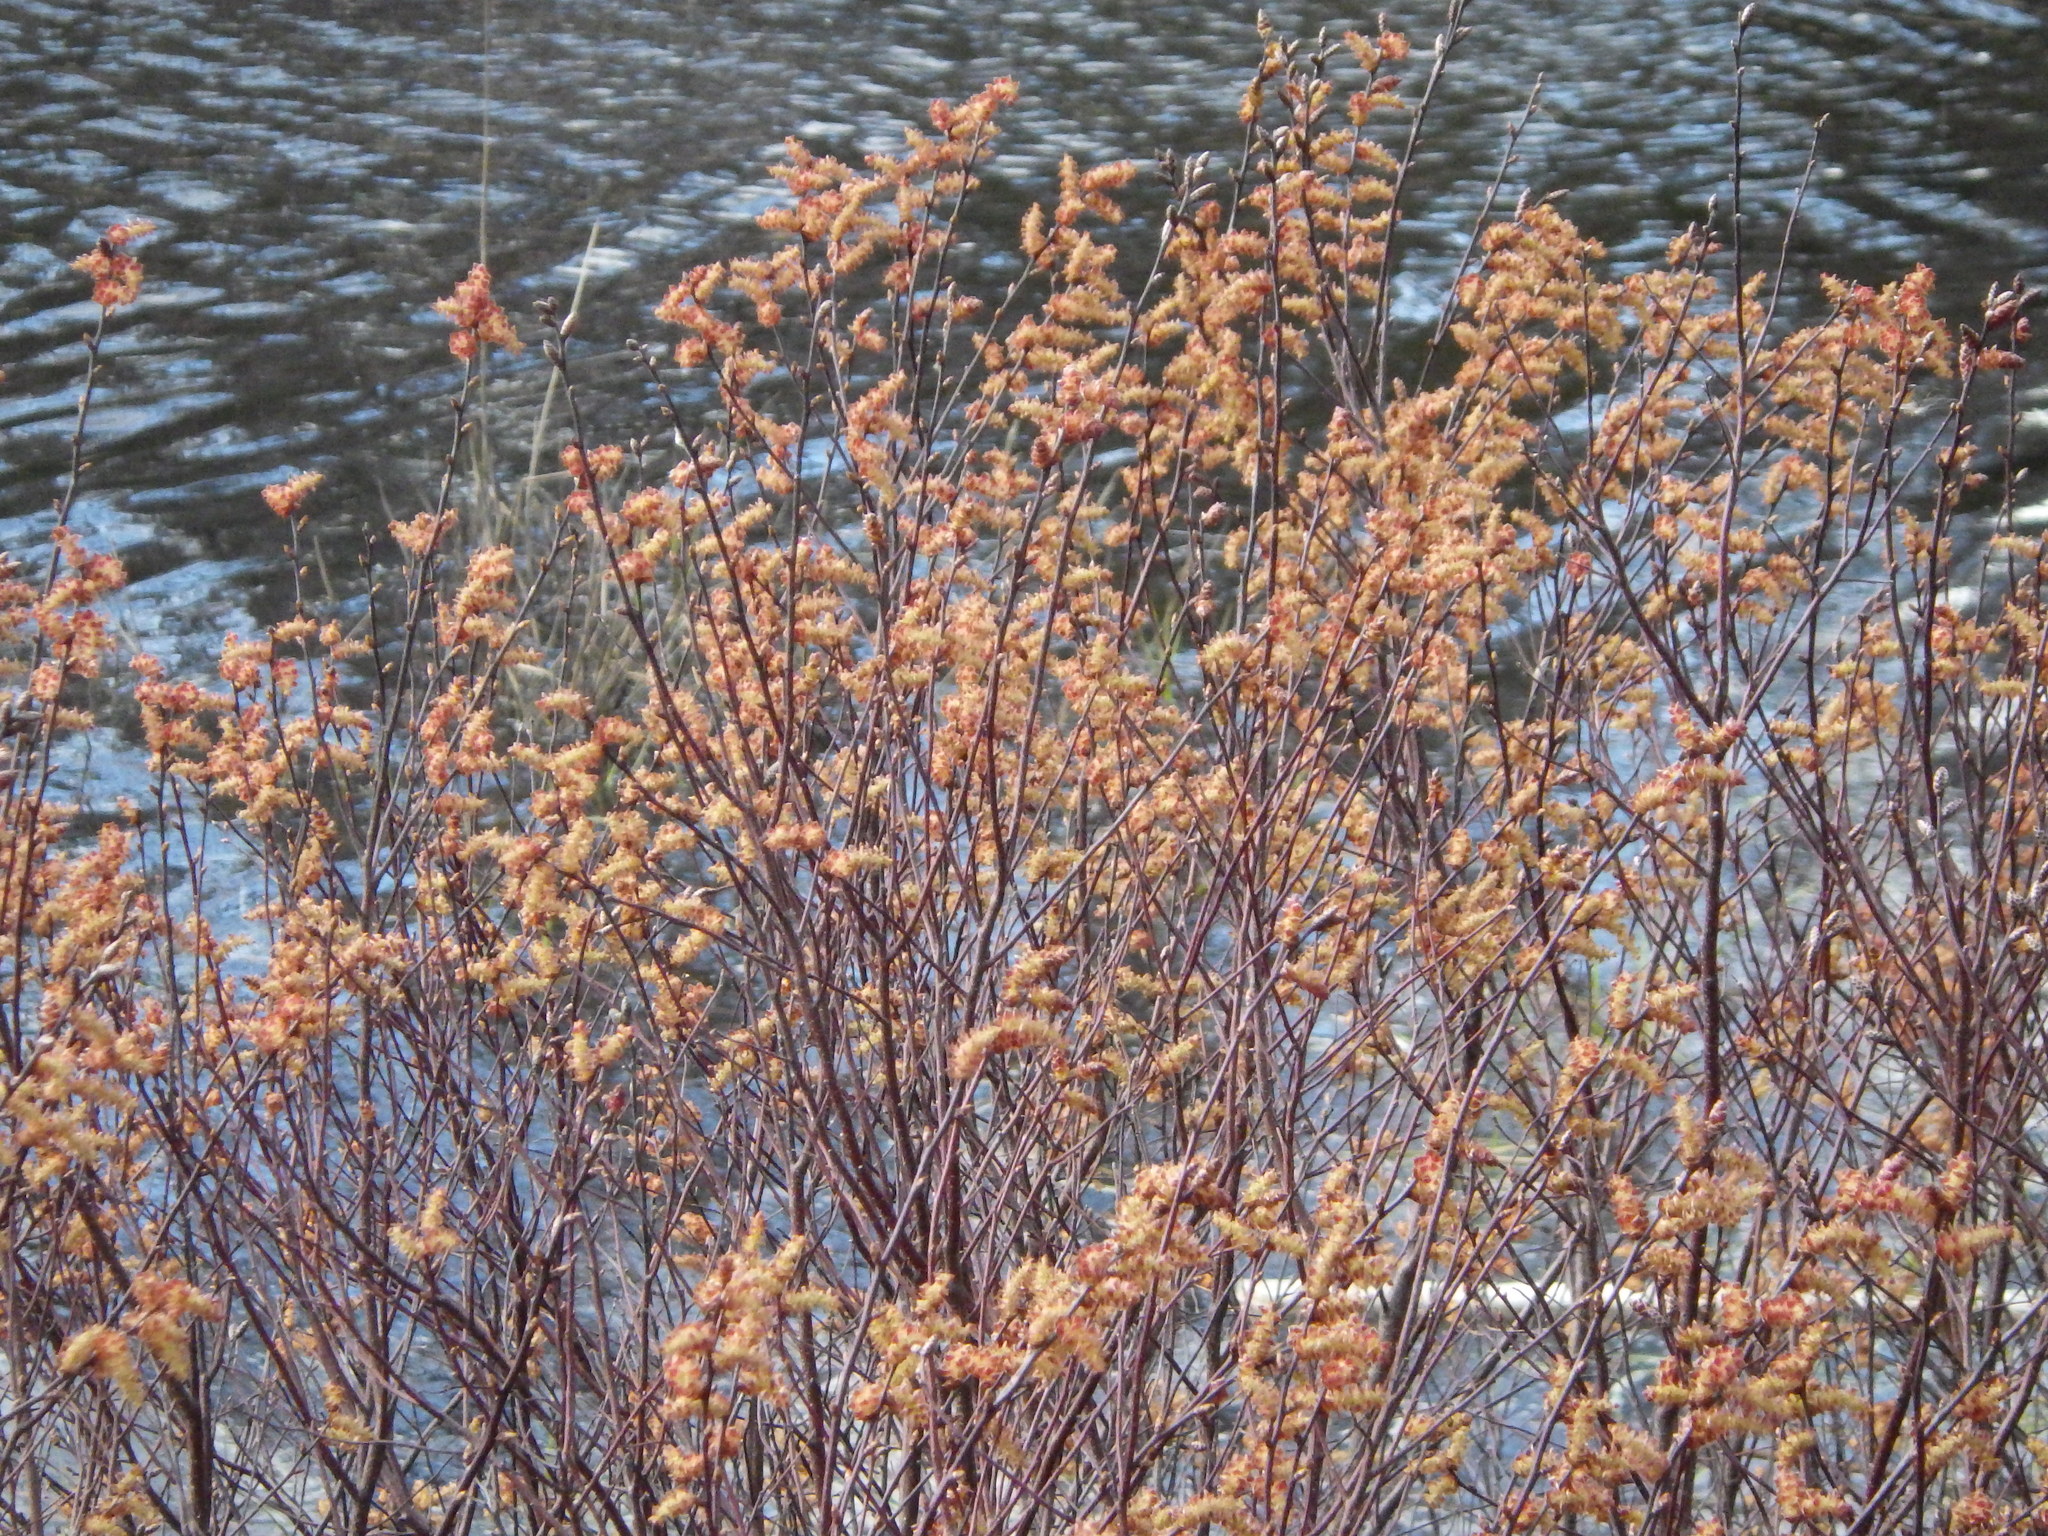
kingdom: Plantae
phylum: Tracheophyta
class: Magnoliopsida
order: Fagales
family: Myricaceae
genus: Myrica
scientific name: Myrica gale
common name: Sweet gale
